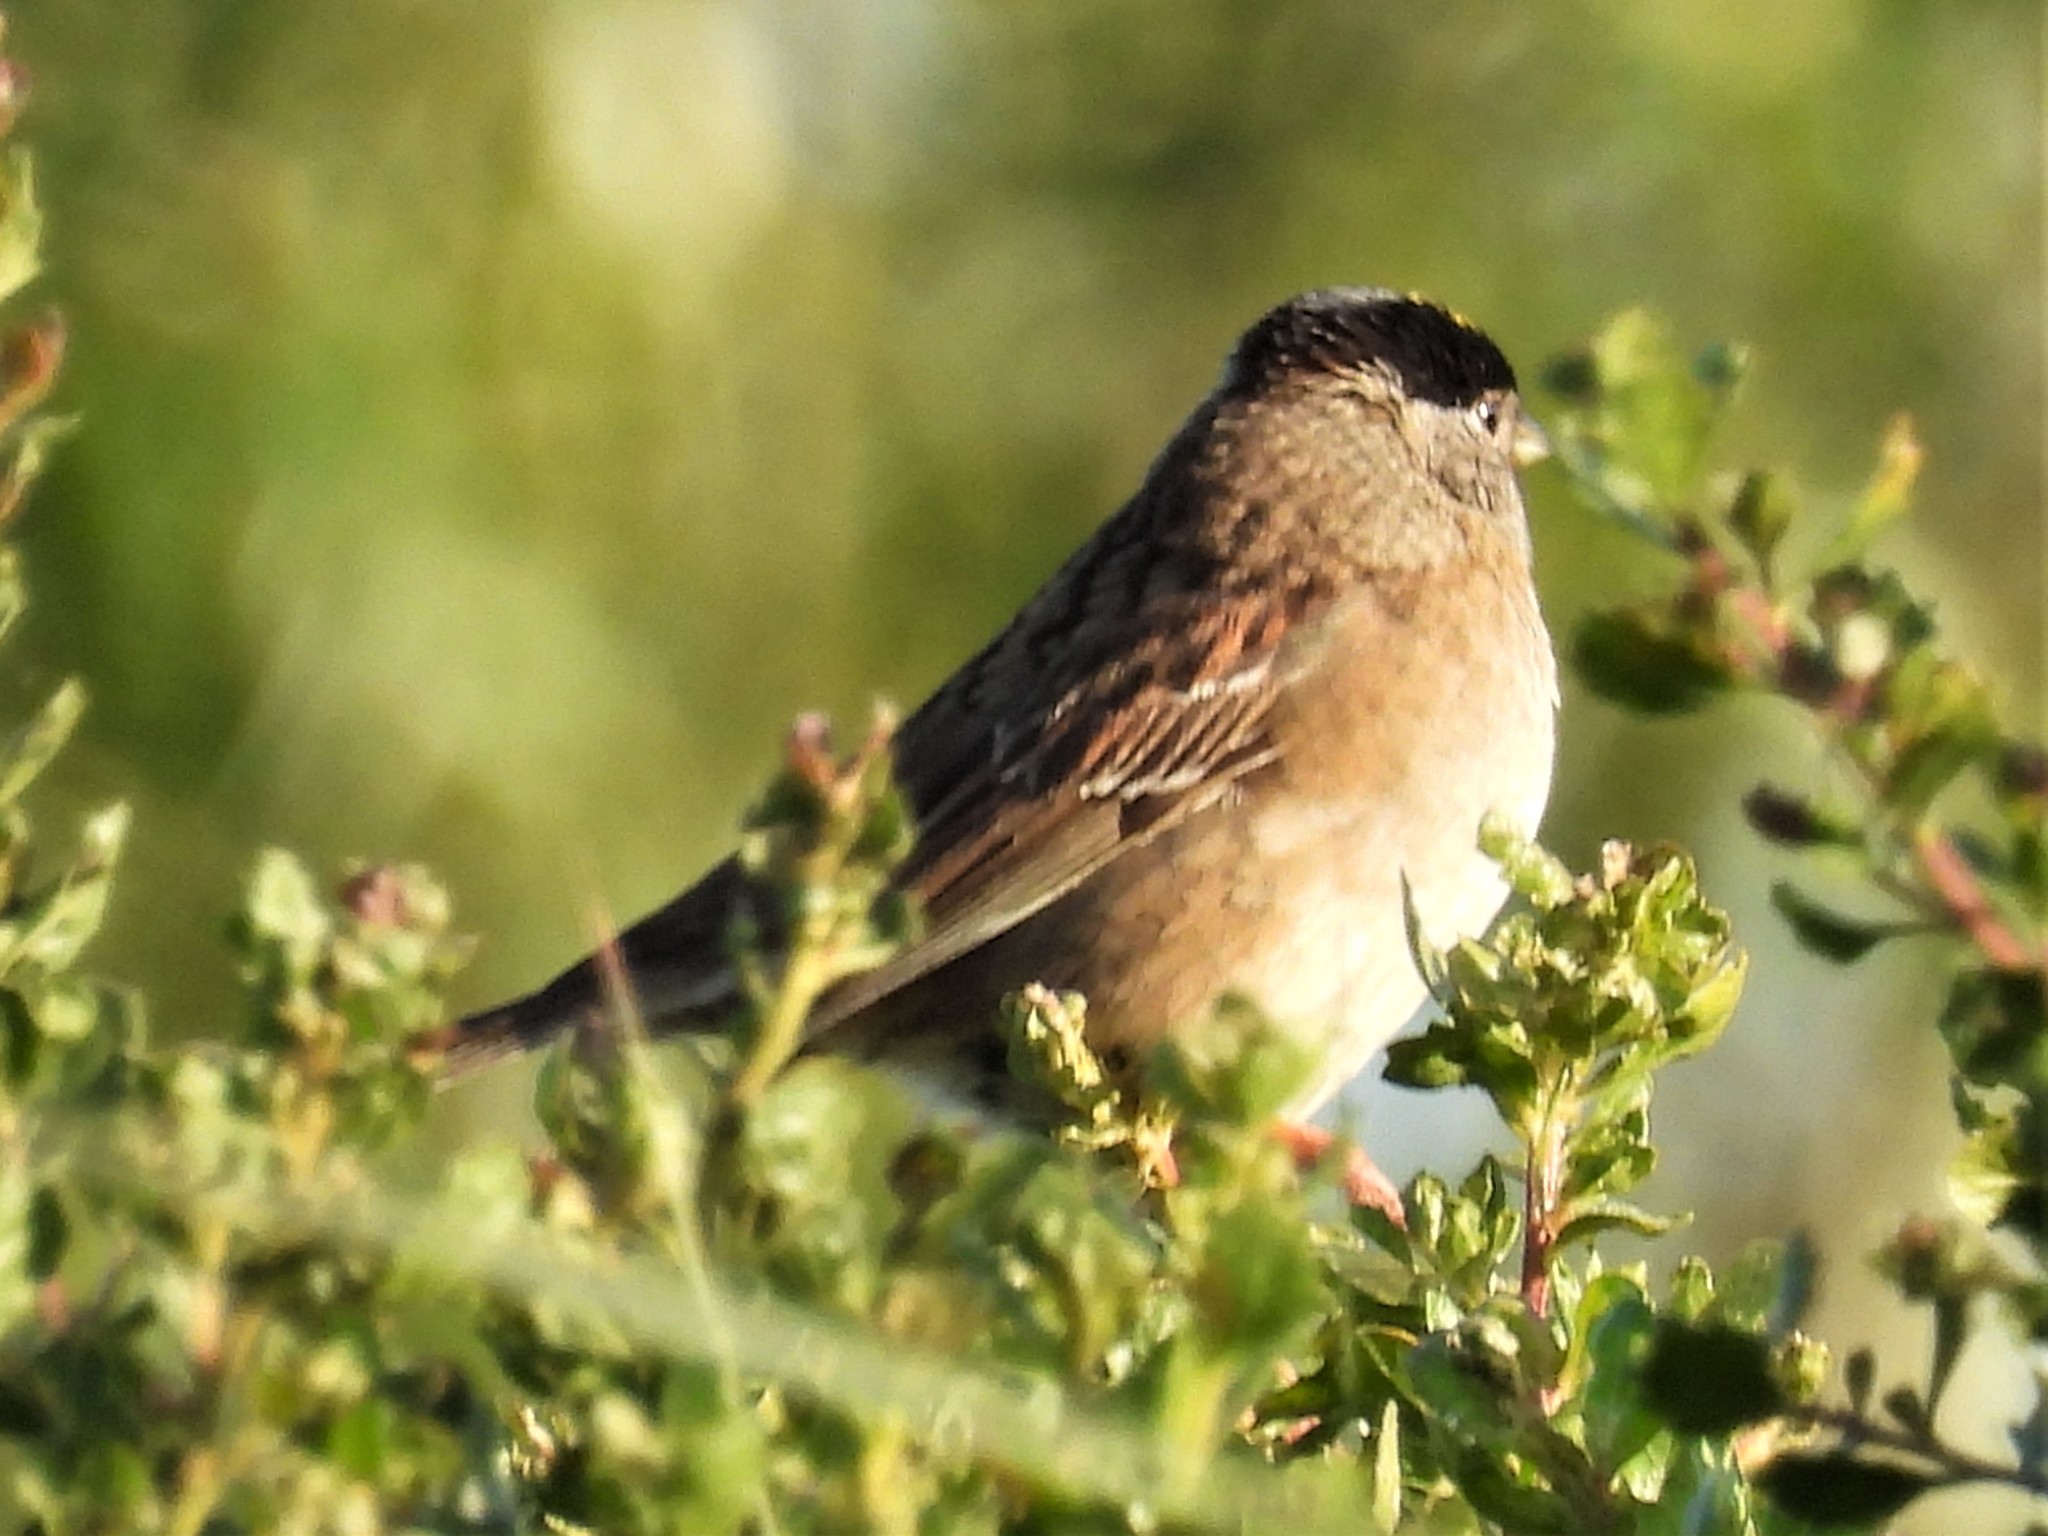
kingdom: Animalia
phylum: Chordata
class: Aves
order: Passeriformes
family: Passerellidae
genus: Zonotrichia
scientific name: Zonotrichia atricapilla
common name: Golden-crowned sparrow
